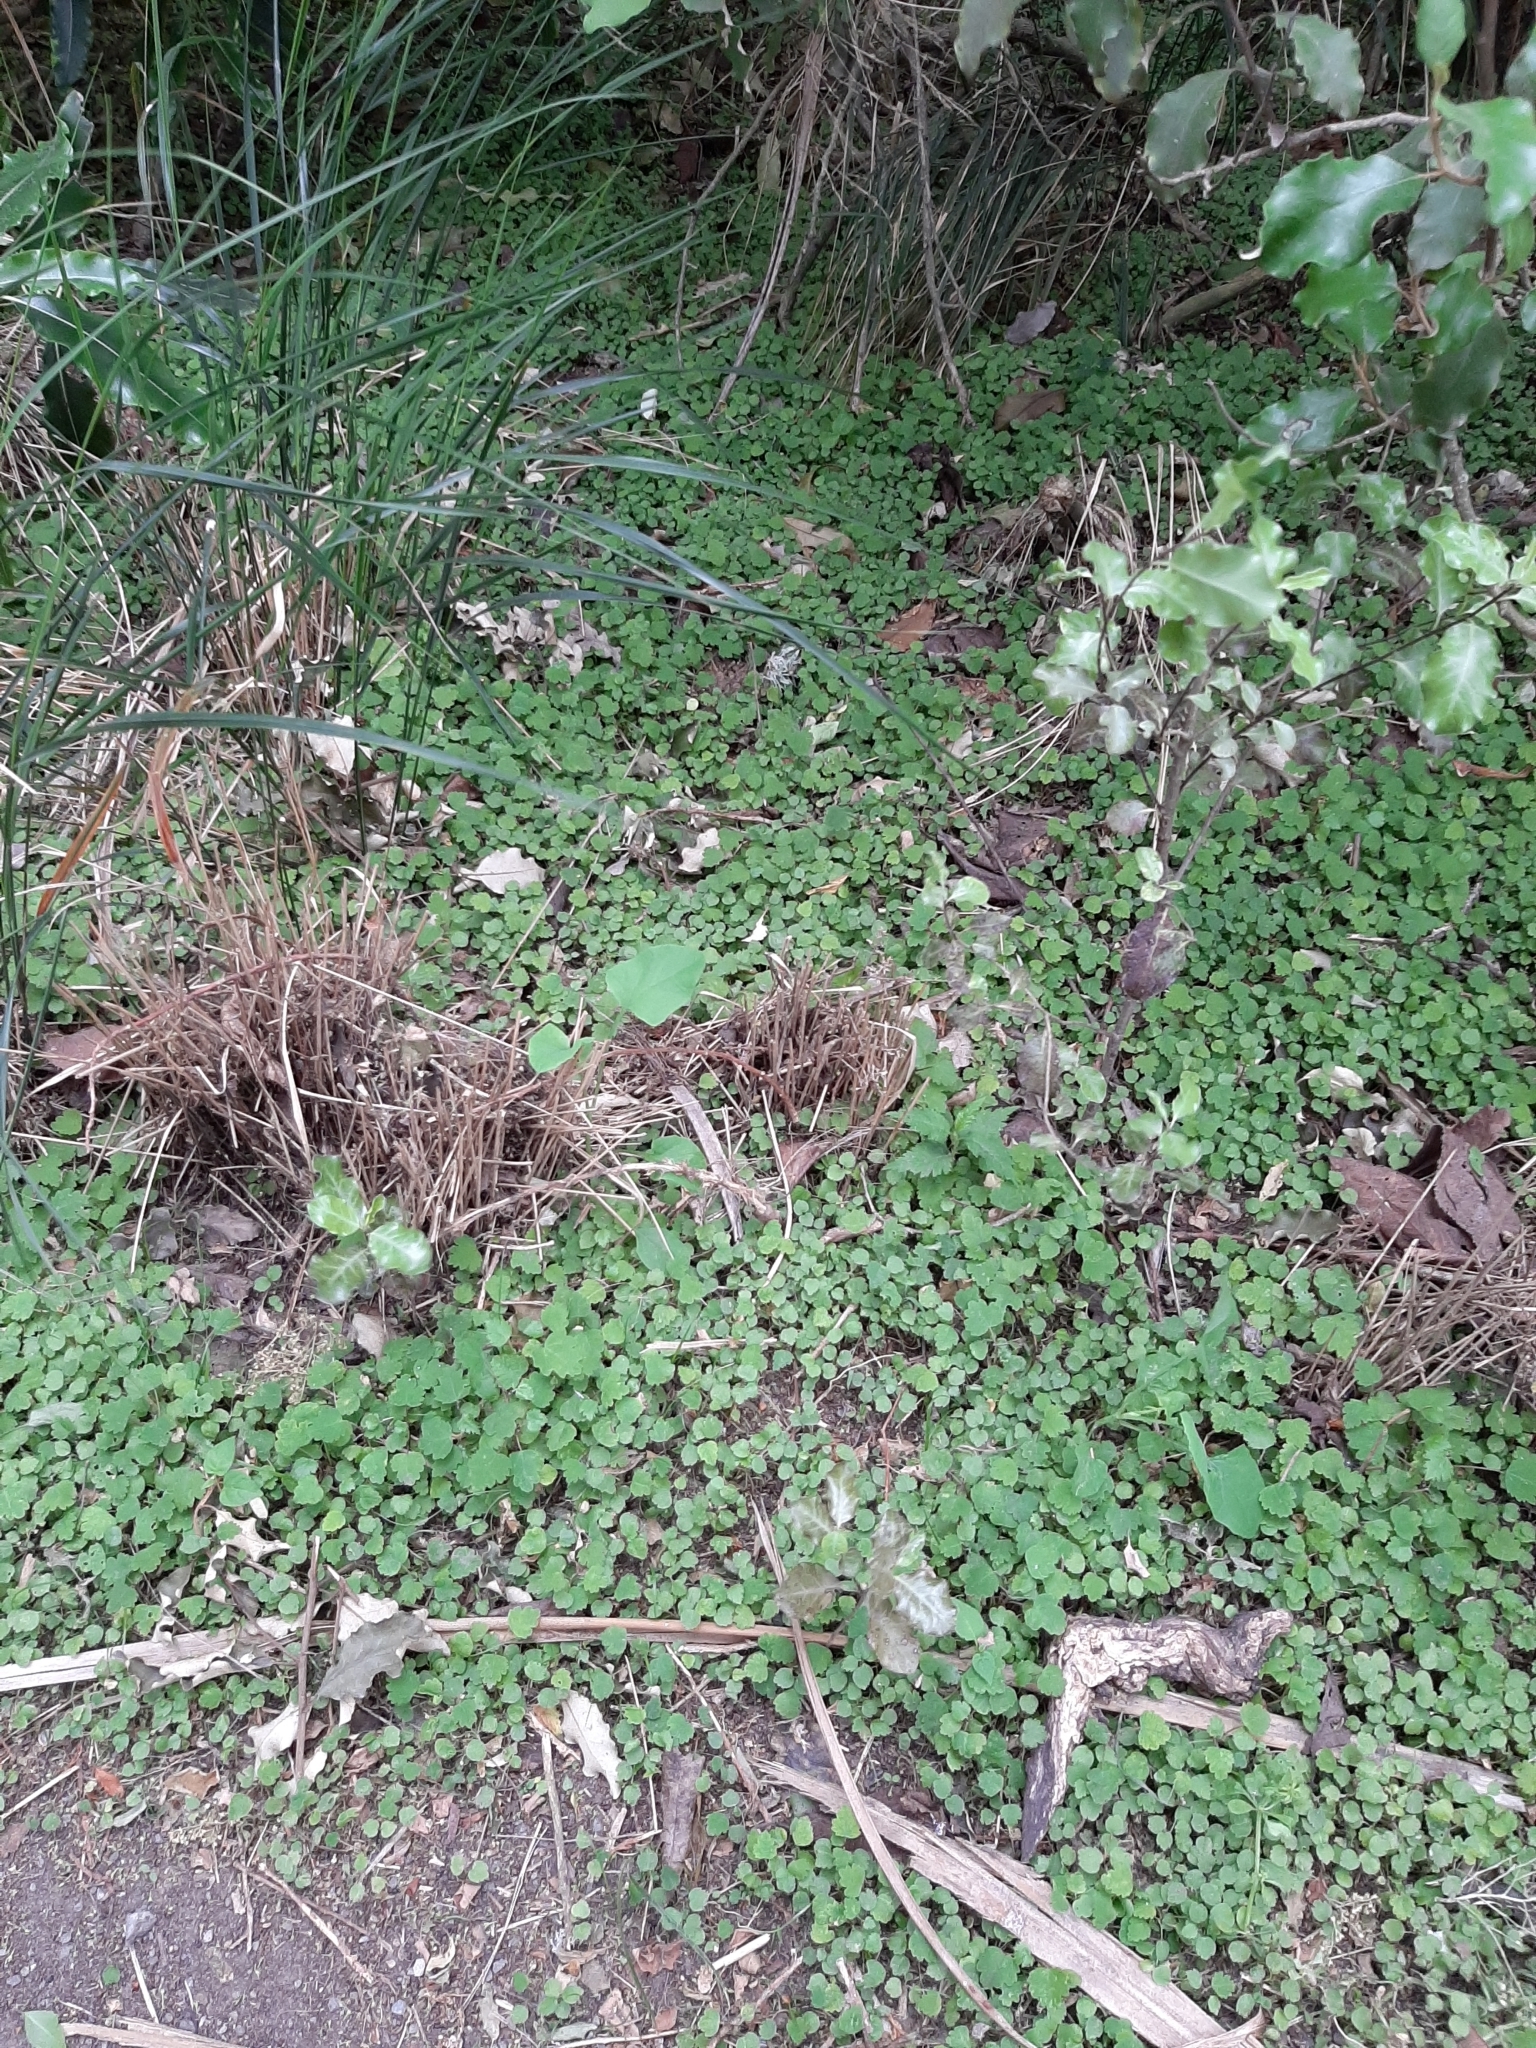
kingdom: Plantae
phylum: Tracheophyta
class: Magnoliopsida
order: Malvales
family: Malvaceae
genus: Plagianthus
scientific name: Plagianthus regius
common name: Manatu
